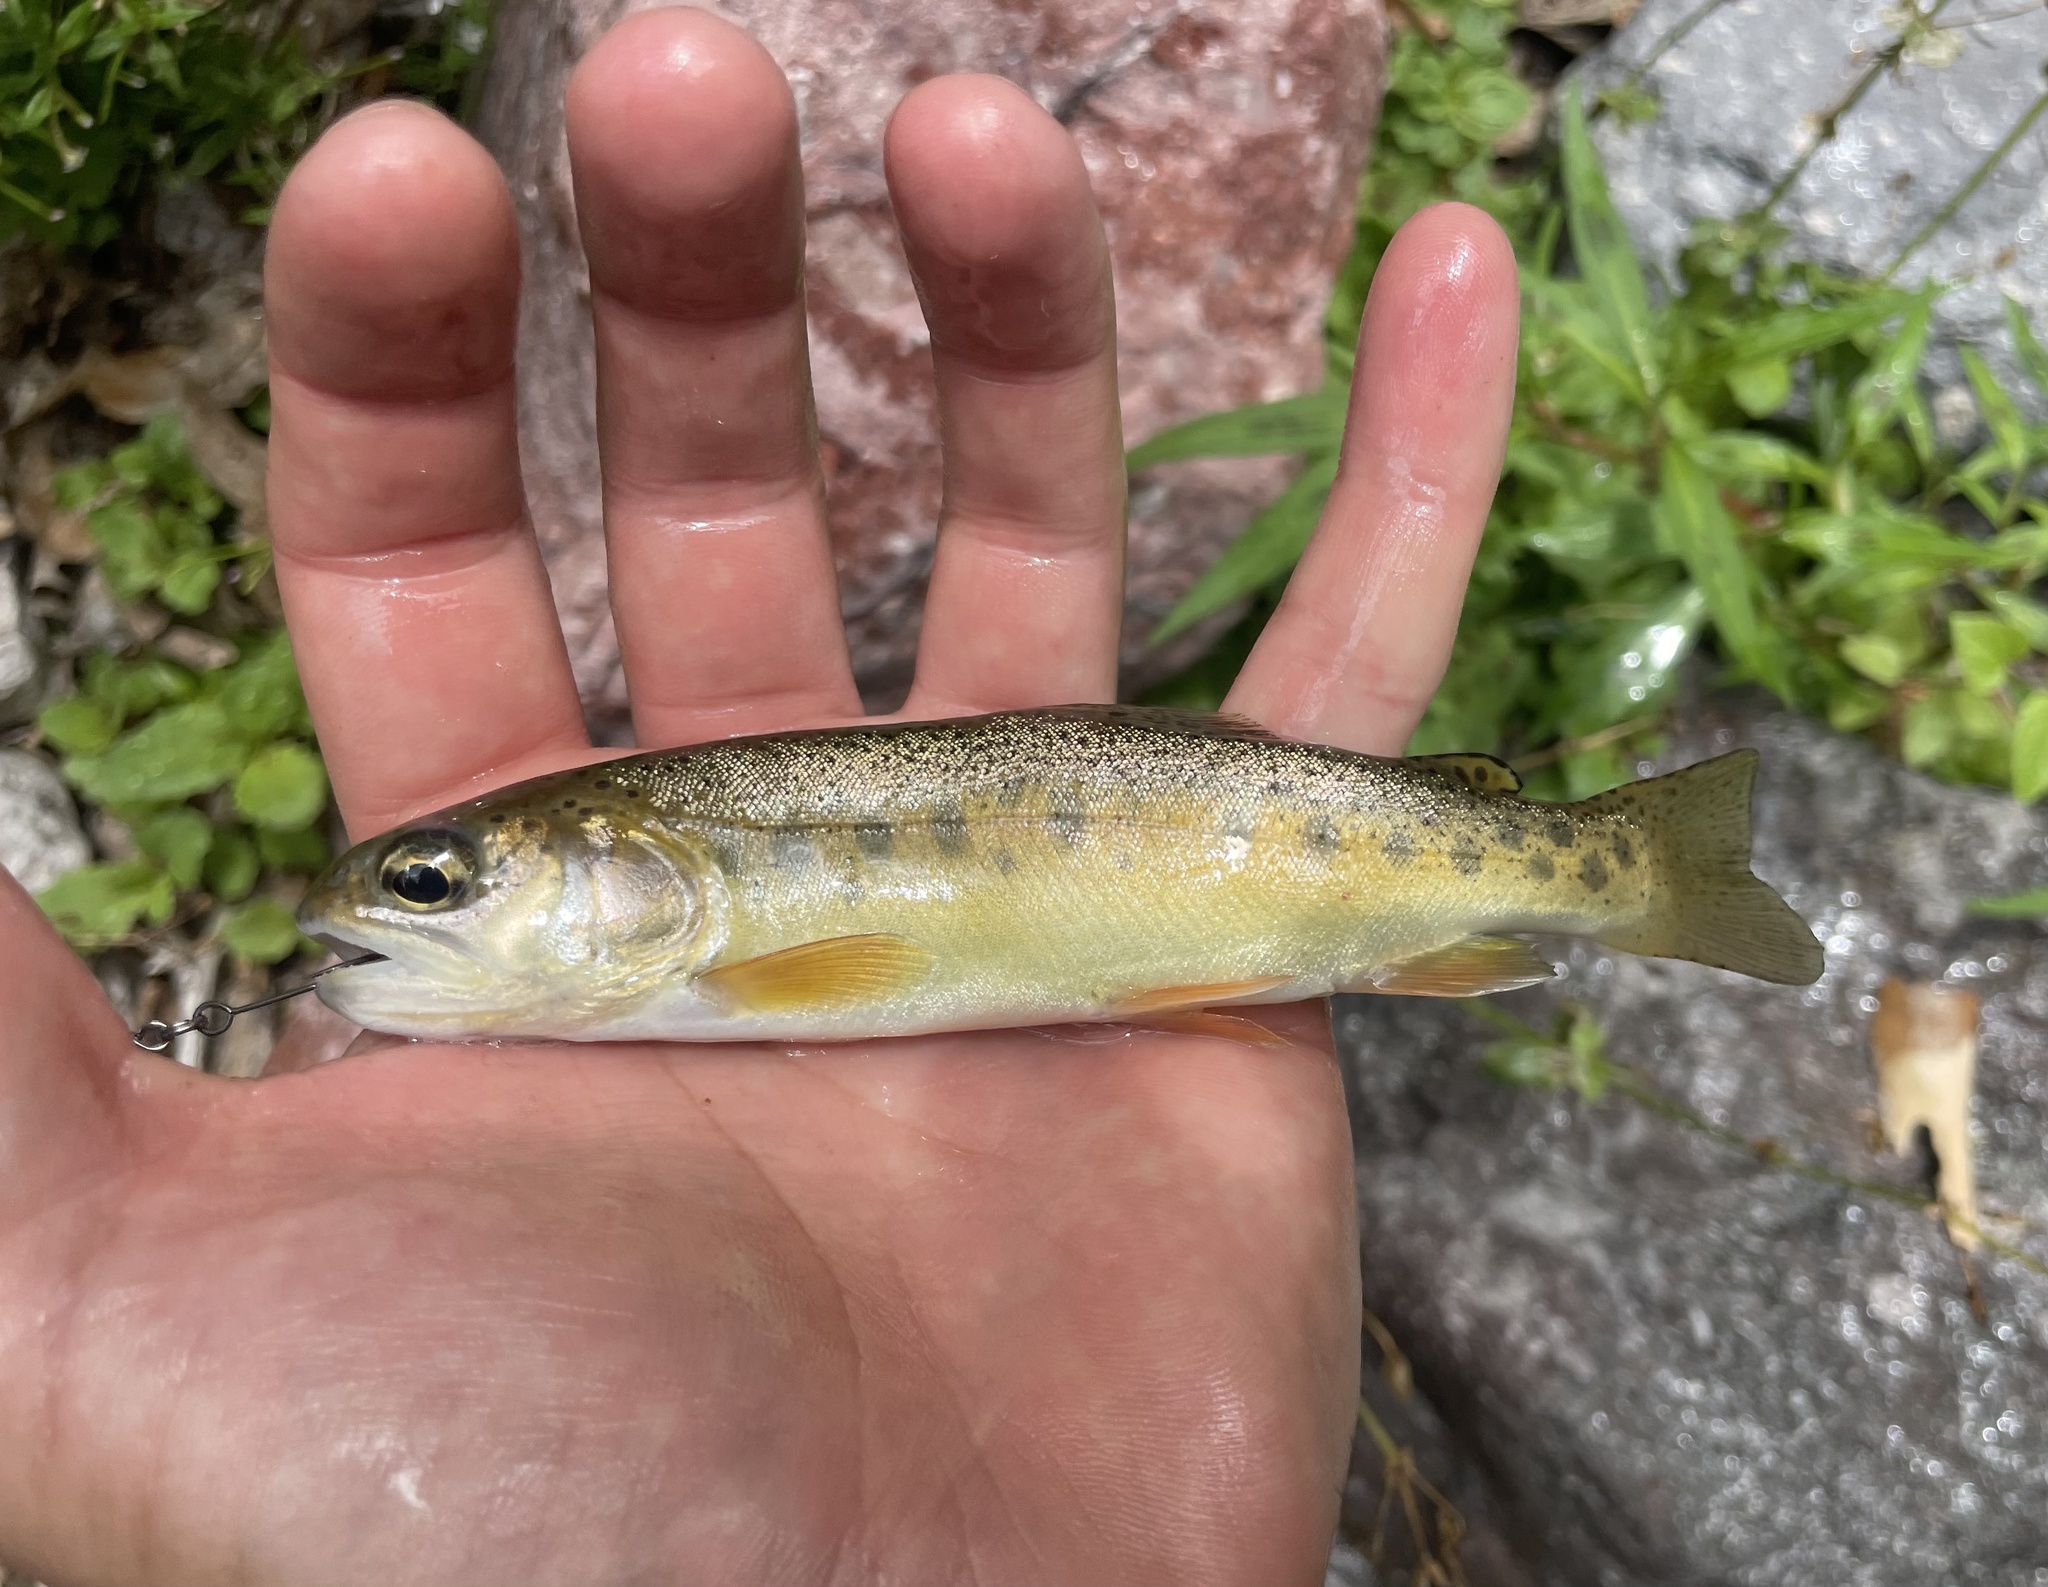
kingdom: Animalia
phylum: Chordata
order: Salmoniformes
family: Salmonidae
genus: Oncorhynchus
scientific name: Oncorhynchus gilae
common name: Gila trout
